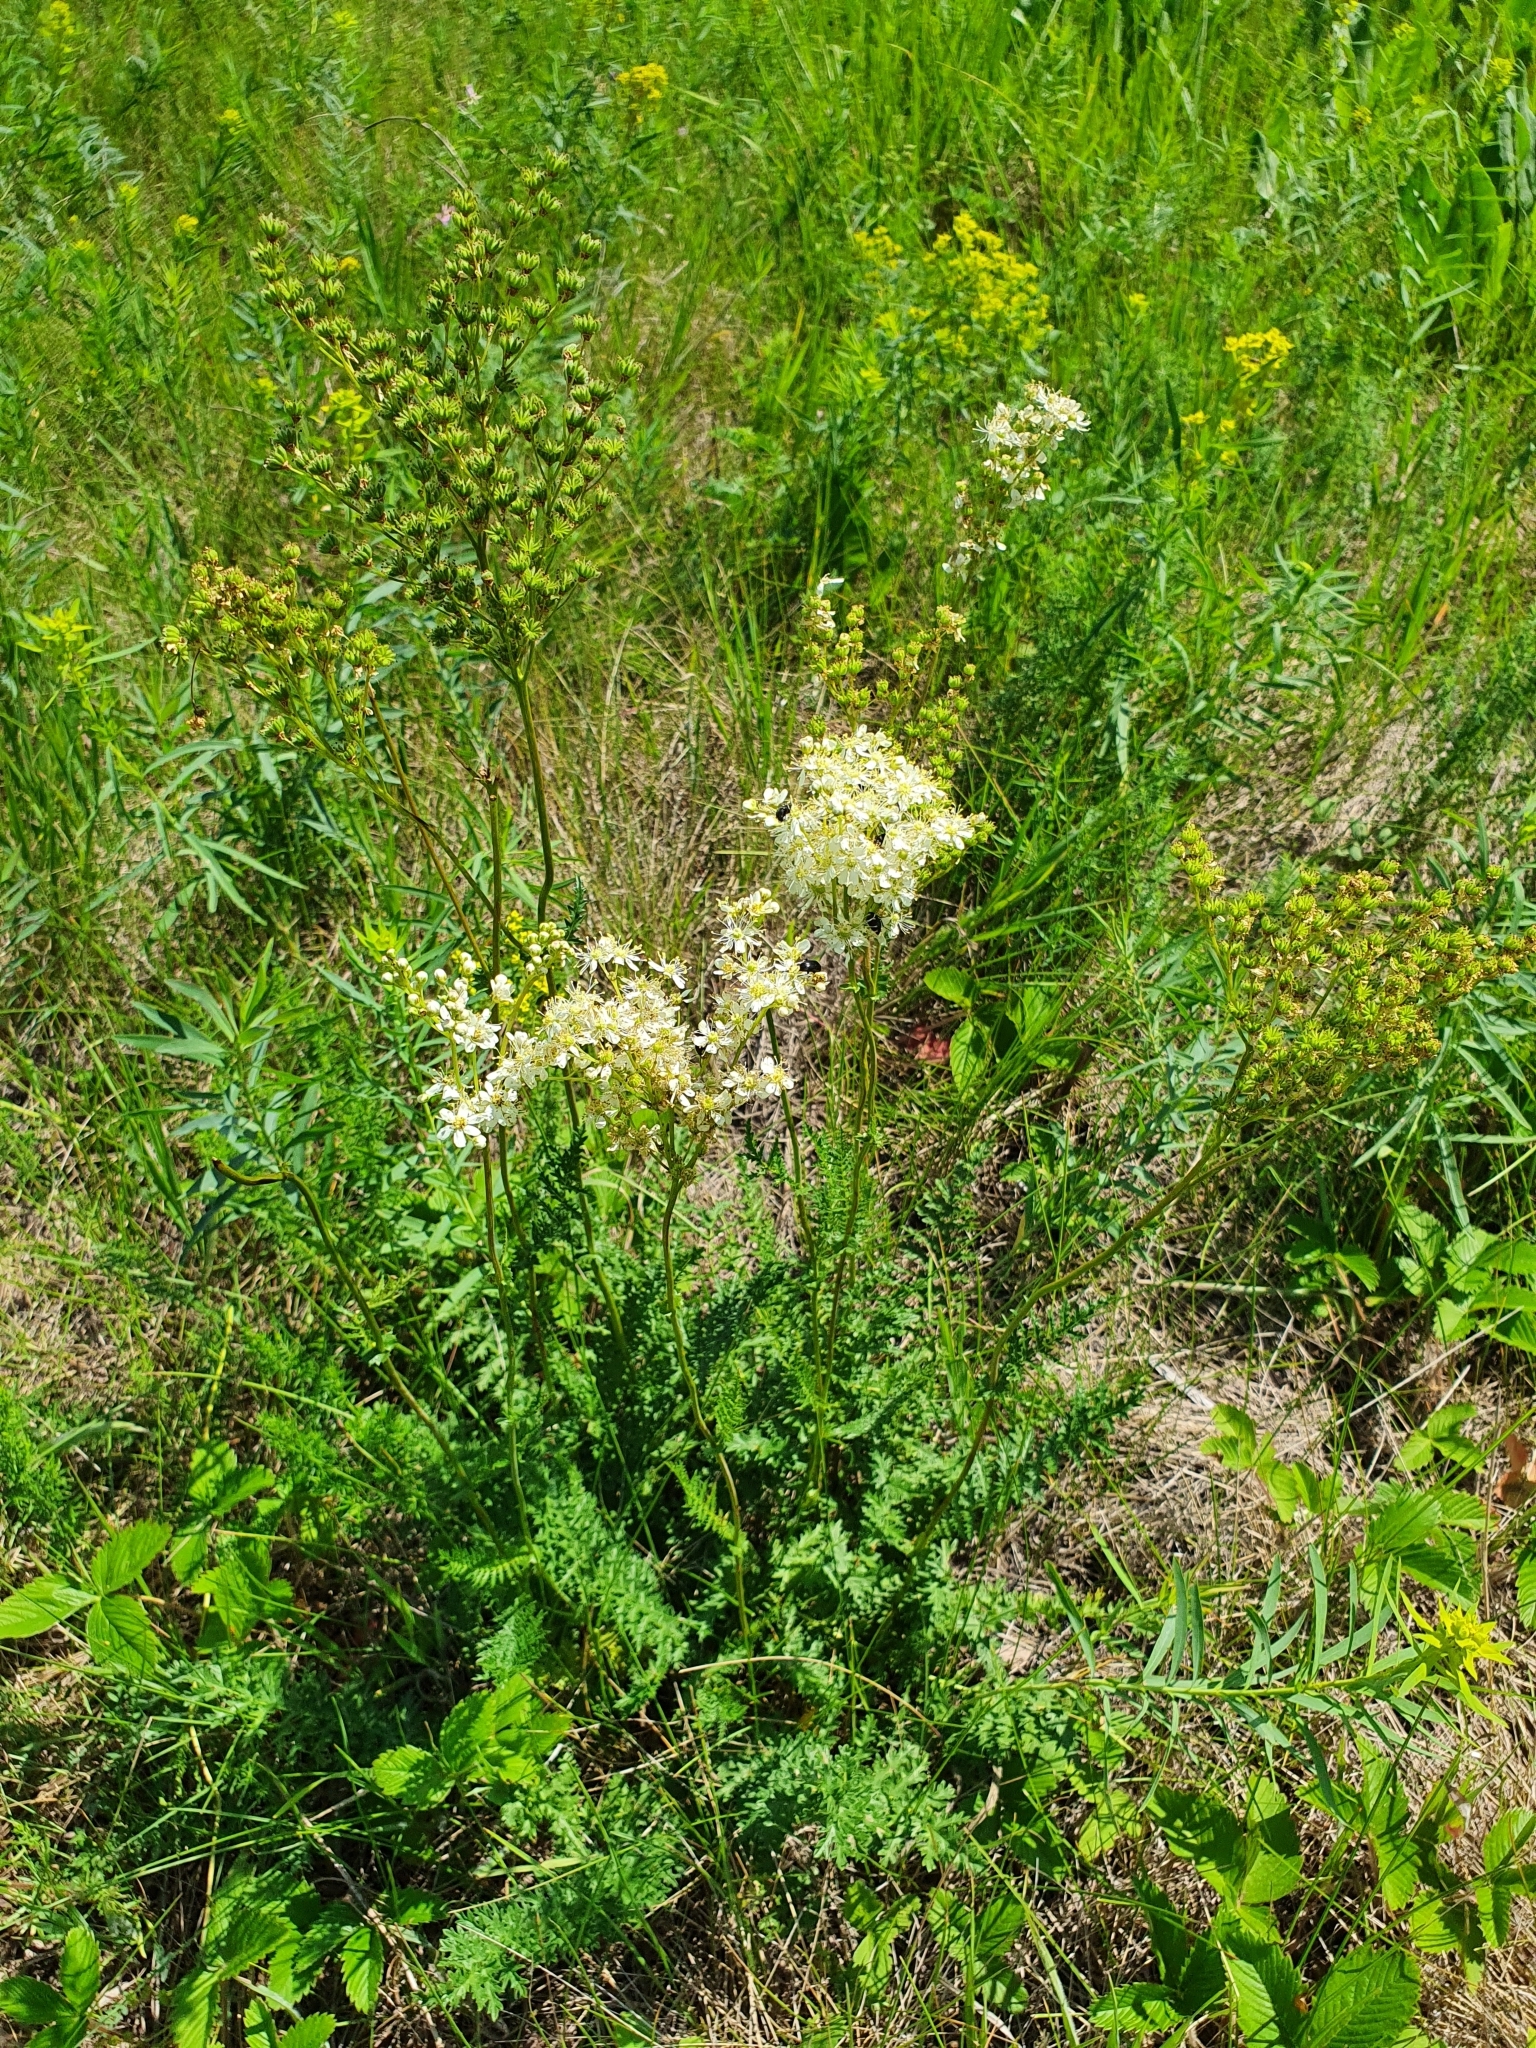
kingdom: Plantae
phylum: Tracheophyta
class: Magnoliopsida
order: Rosales
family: Rosaceae
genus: Filipendula
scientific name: Filipendula vulgaris
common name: Dropwort
